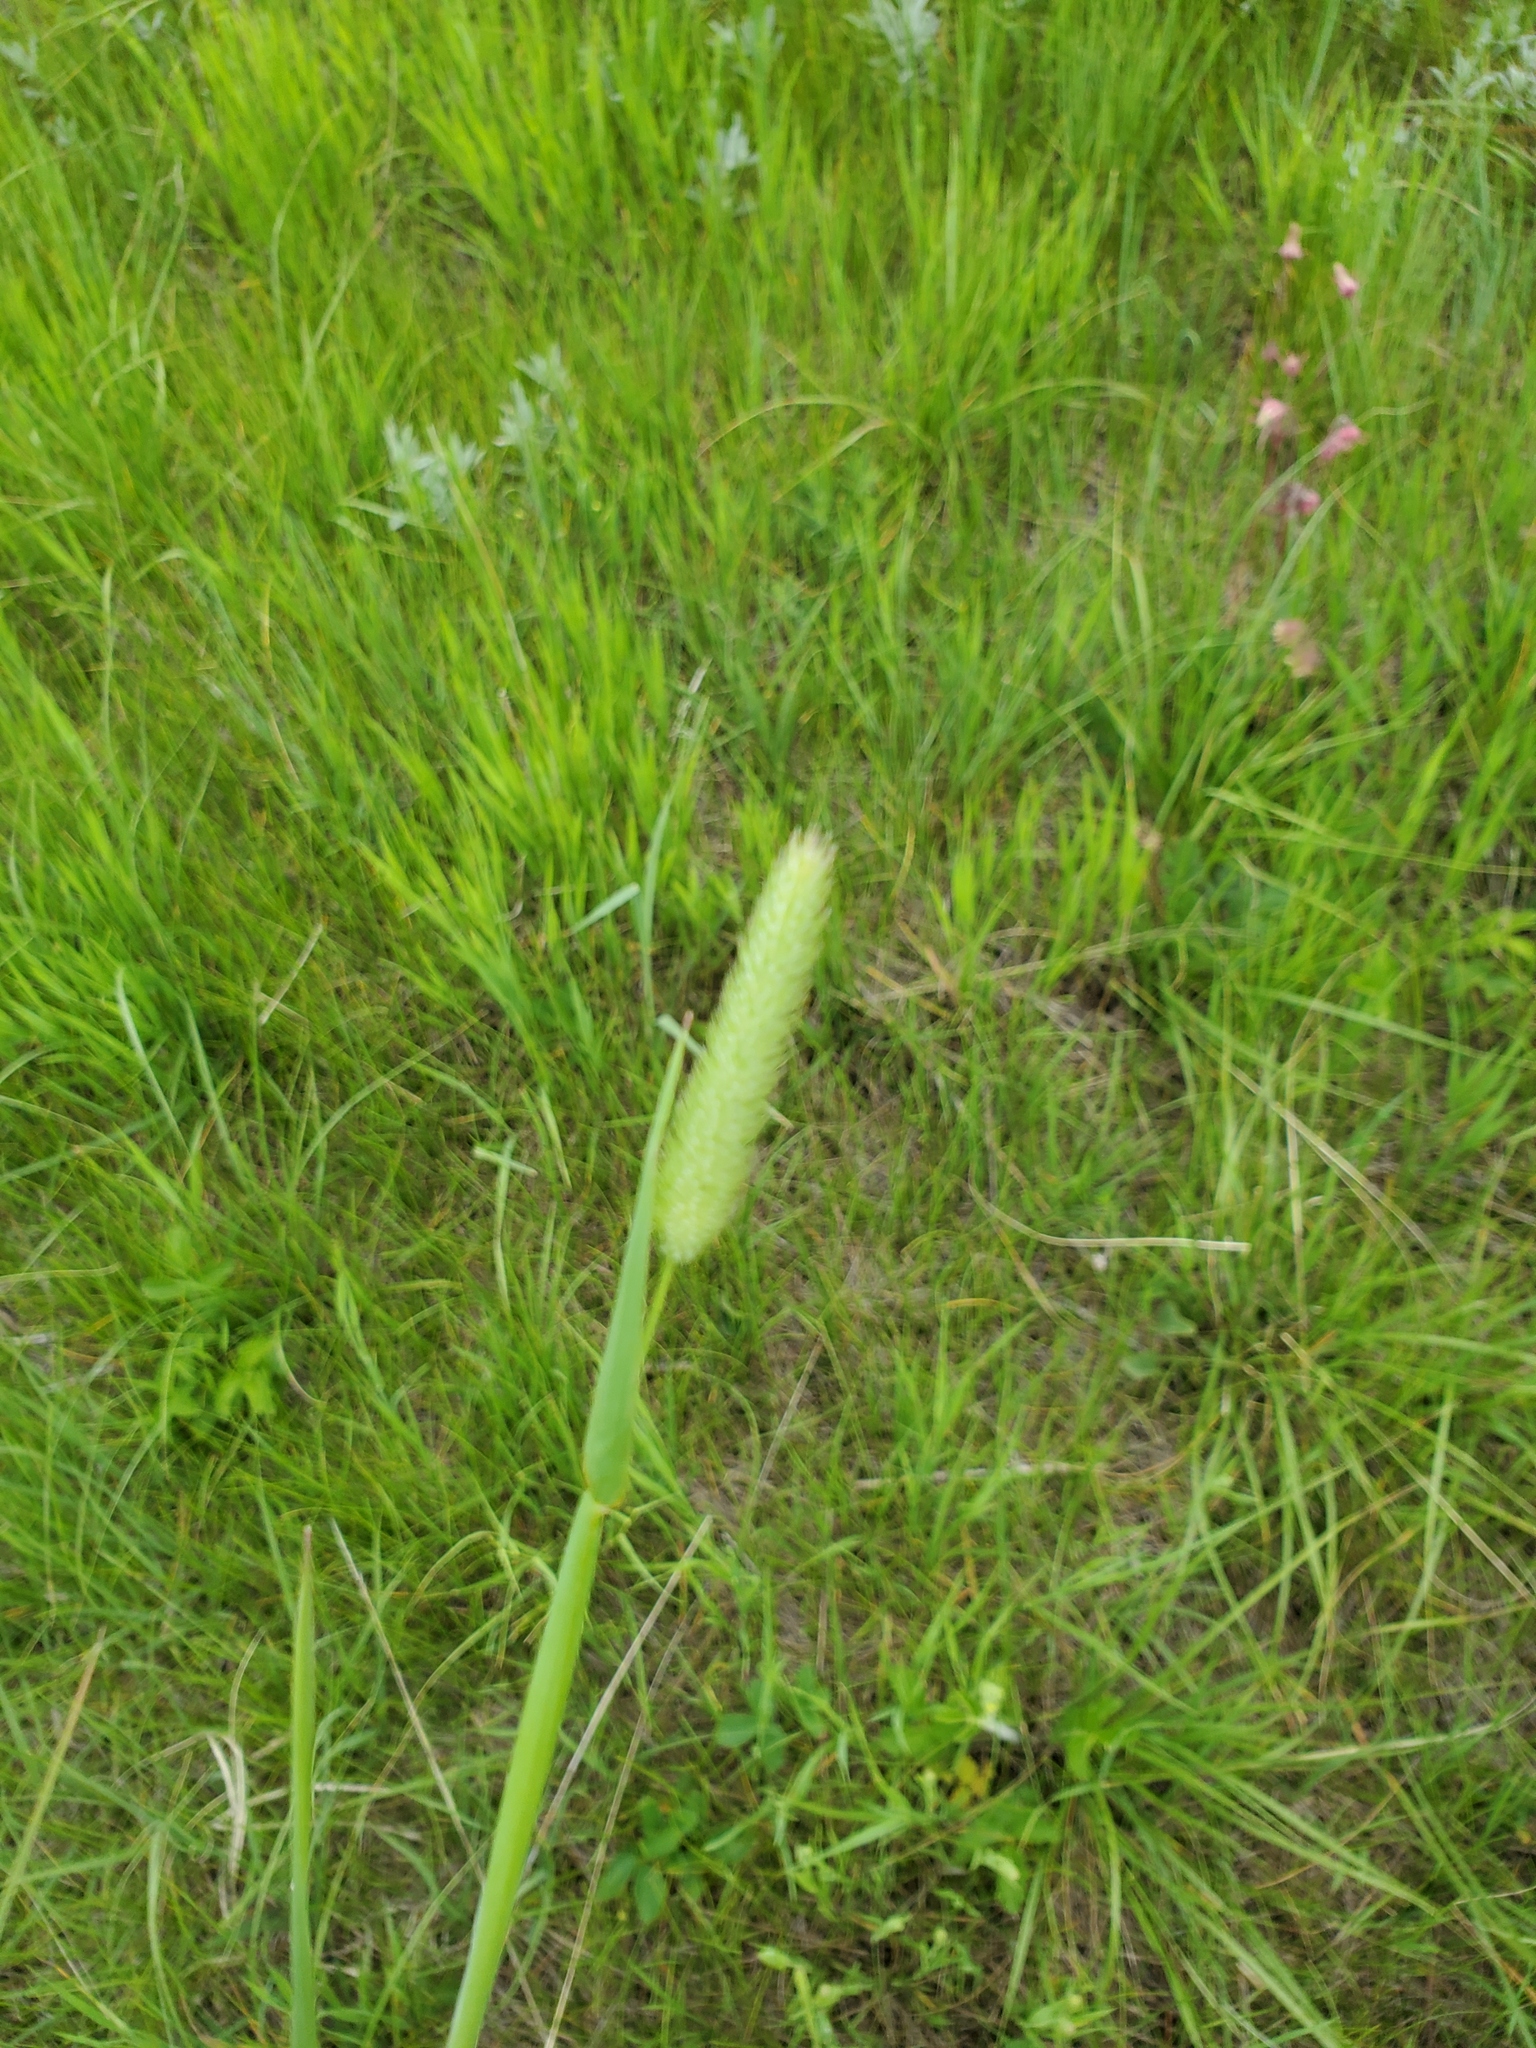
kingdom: Plantae
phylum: Tracheophyta
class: Liliopsida
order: Poales
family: Poaceae
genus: Phleum
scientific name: Phleum pratense
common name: Timothy grass
